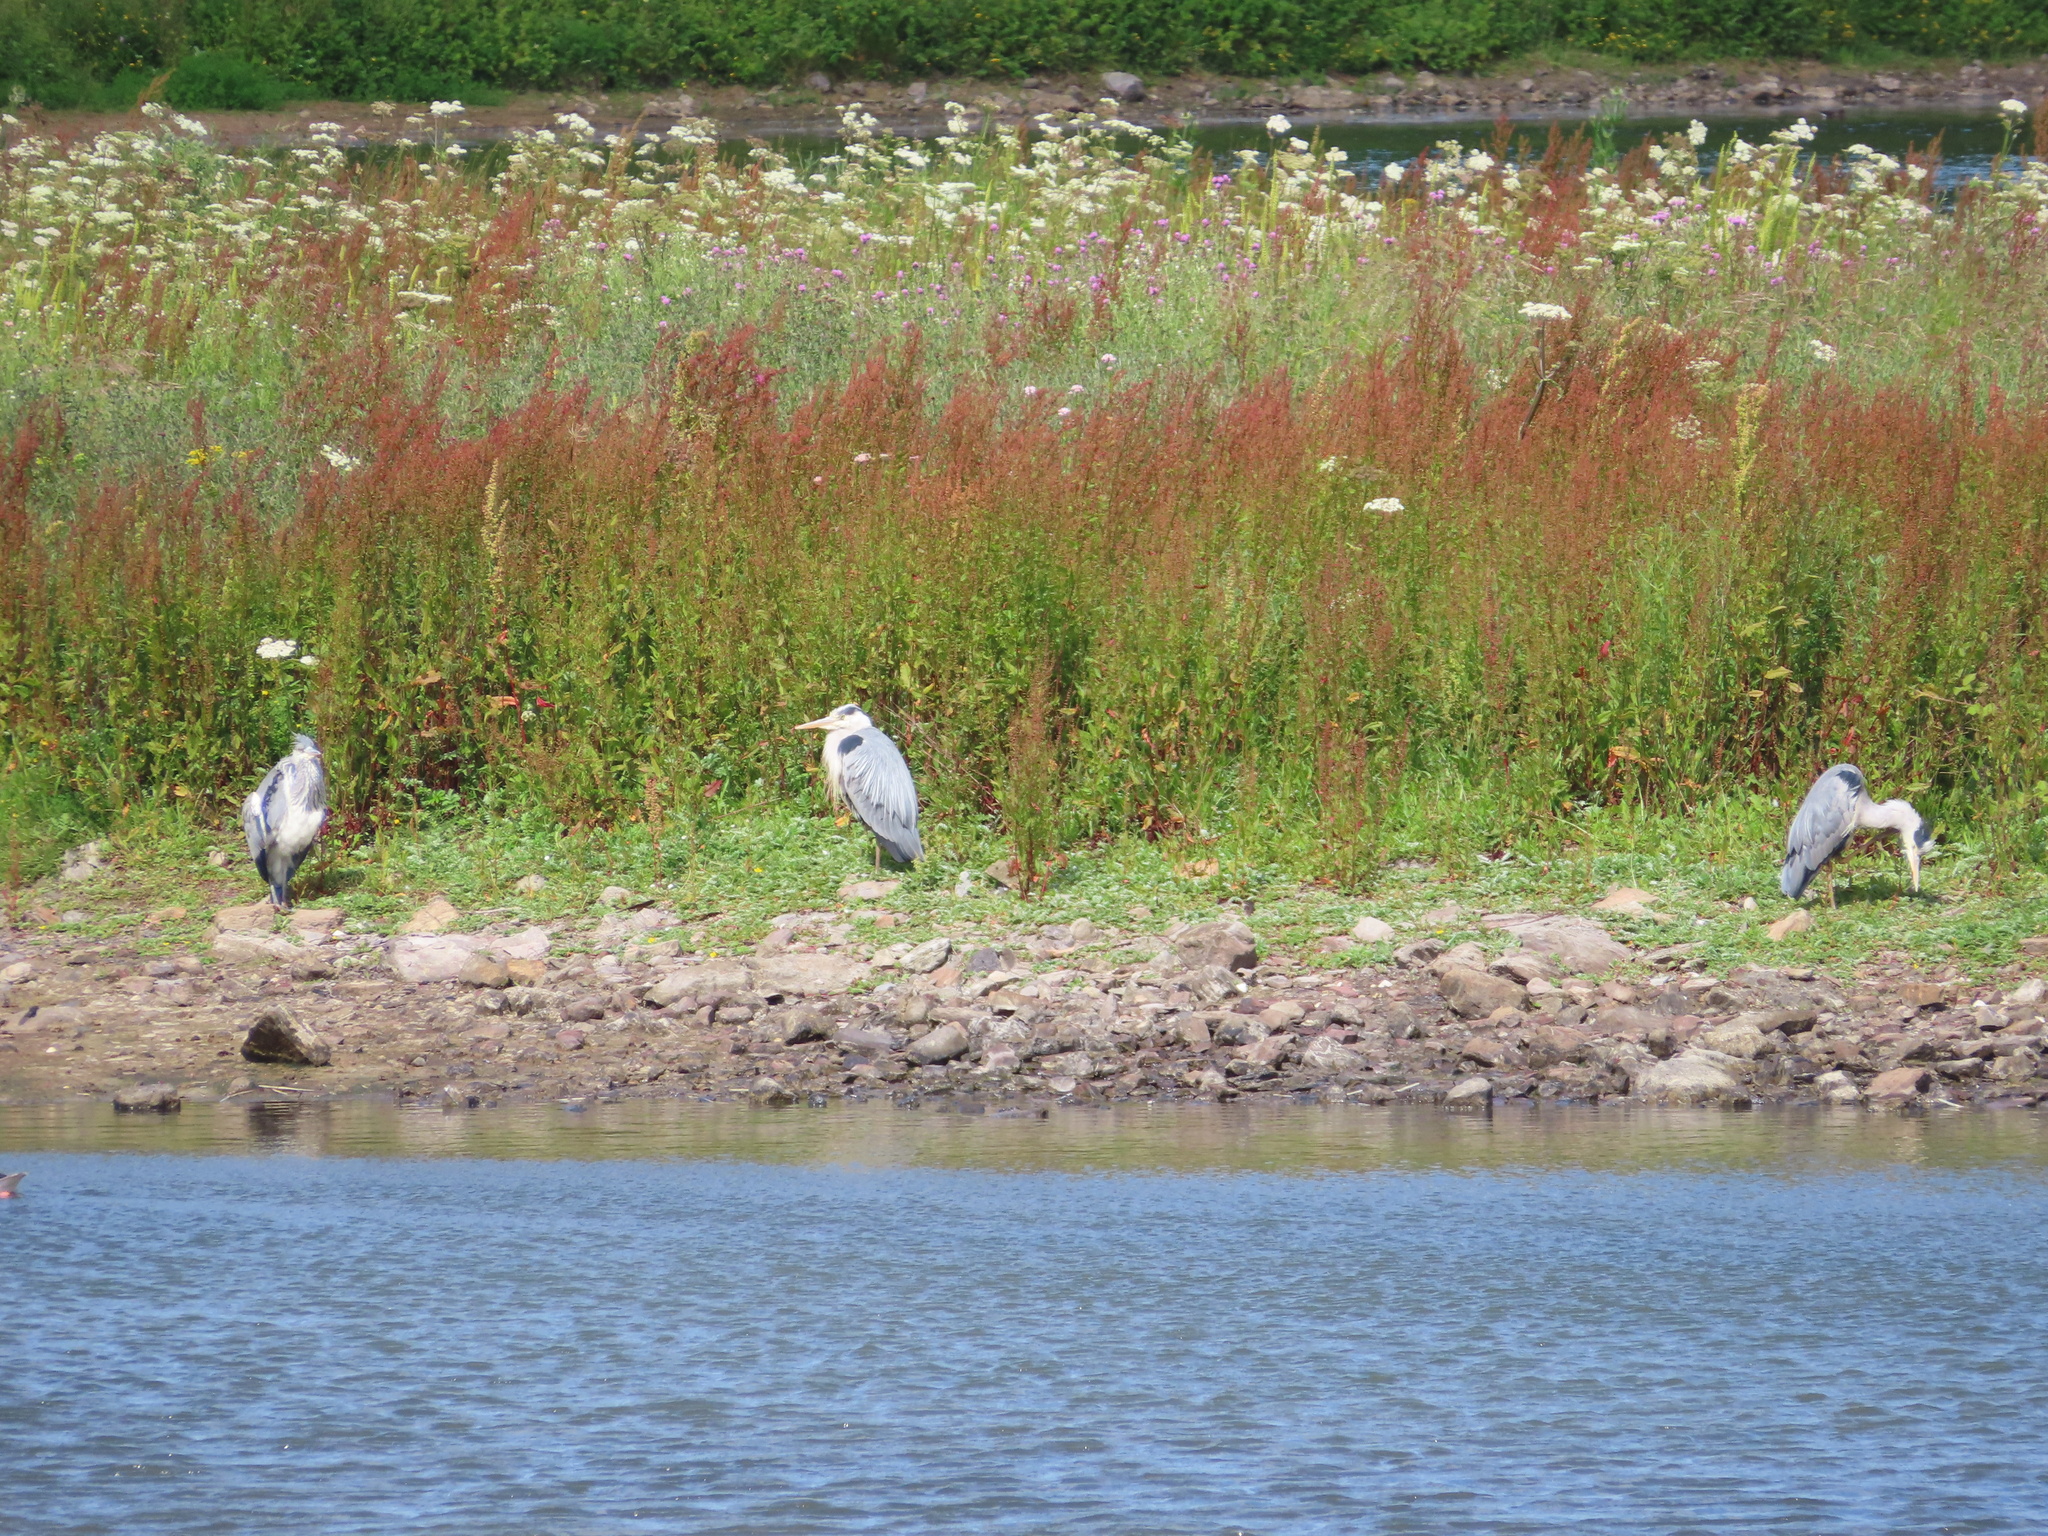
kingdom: Animalia
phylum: Chordata
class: Aves
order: Pelecaniformes
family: Ardeidae
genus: Ardea
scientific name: Ardea cinerea
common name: Grey heron
